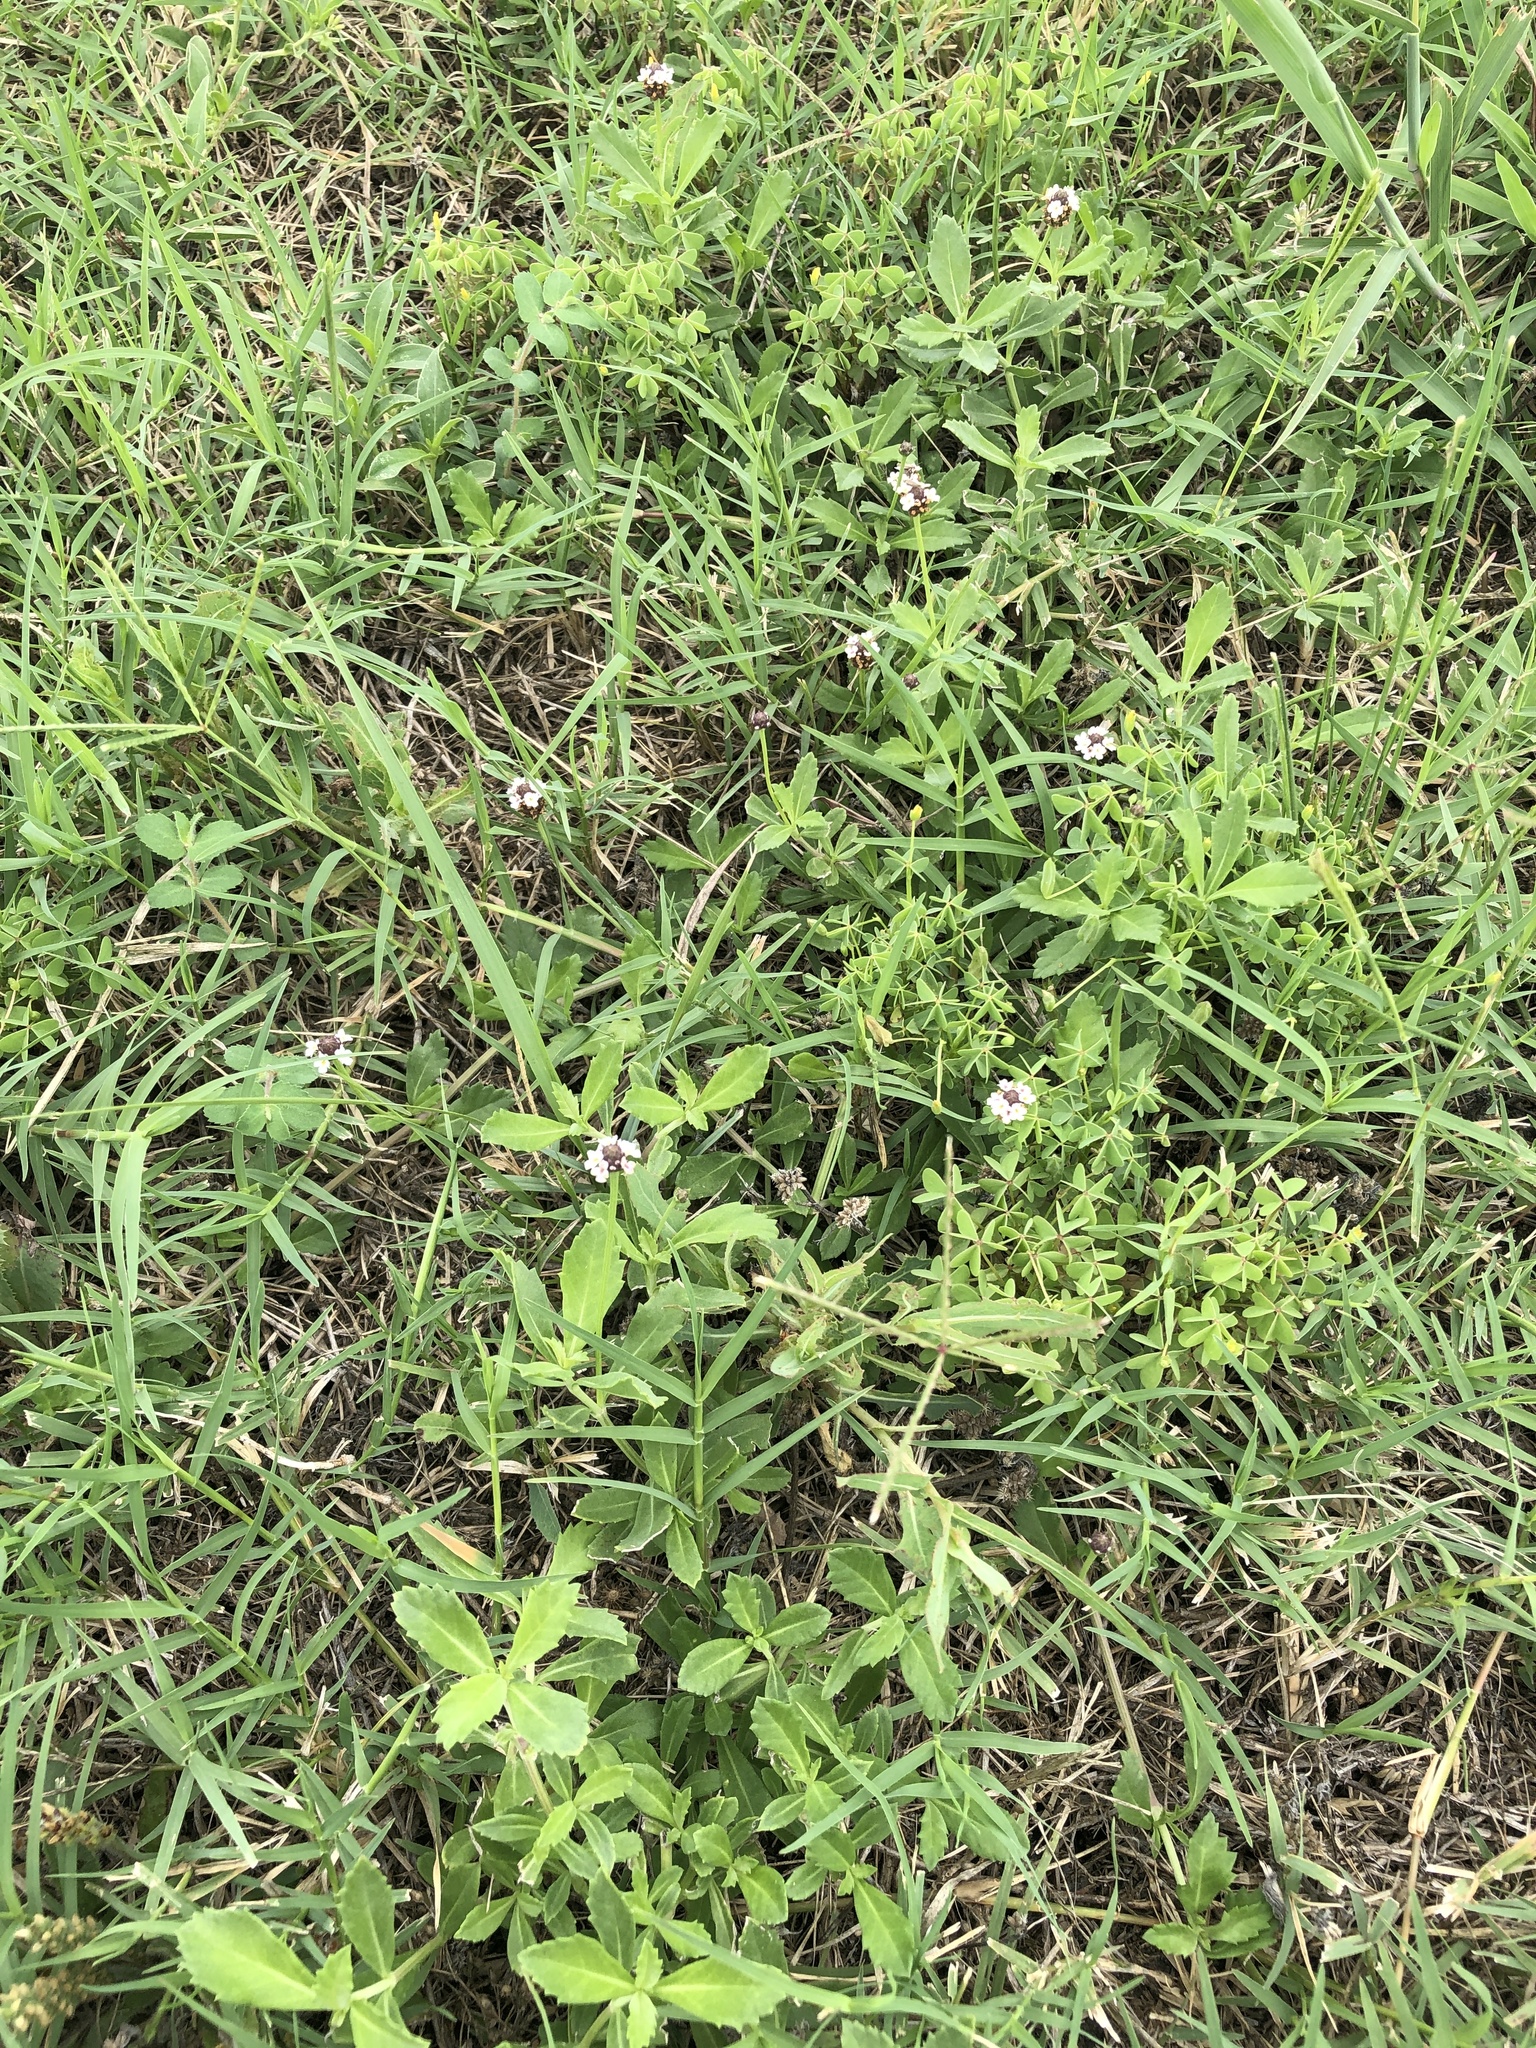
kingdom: Plantae
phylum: Tracheophyta
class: Magnoliopsida
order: Lamiales
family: Verbenaceae
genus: Phyla
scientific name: Phyla nodiflora
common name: Frogfruit
